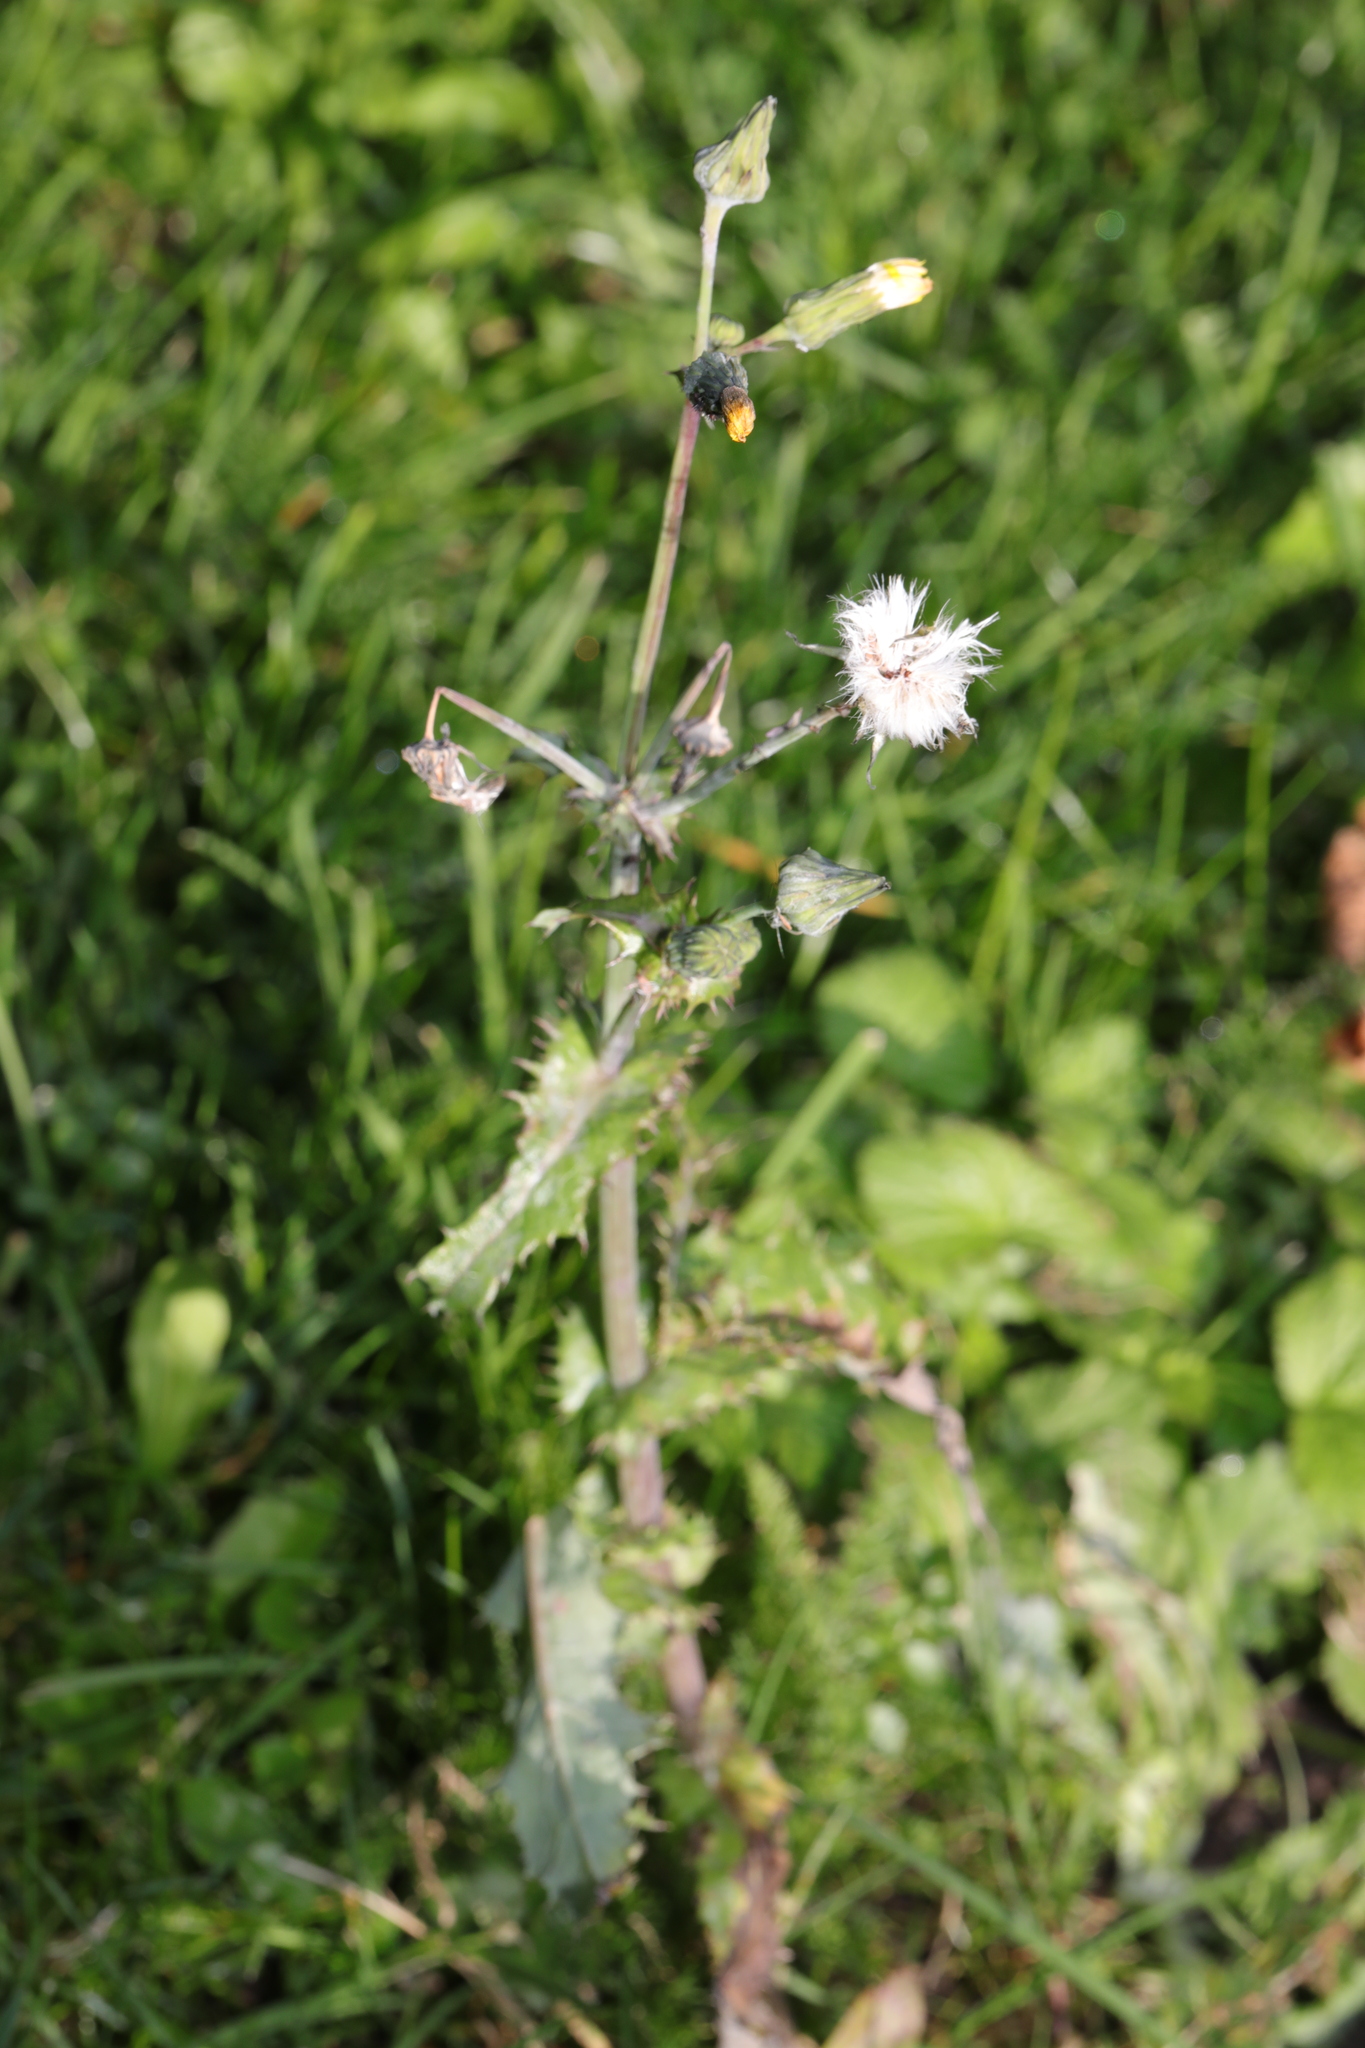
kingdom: Plantae
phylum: Tracheophyta
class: Magnoliopsida
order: Asterales
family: Asteraceae
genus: Sonchus
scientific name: Sonchus asper
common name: Prickly sow-thistle
